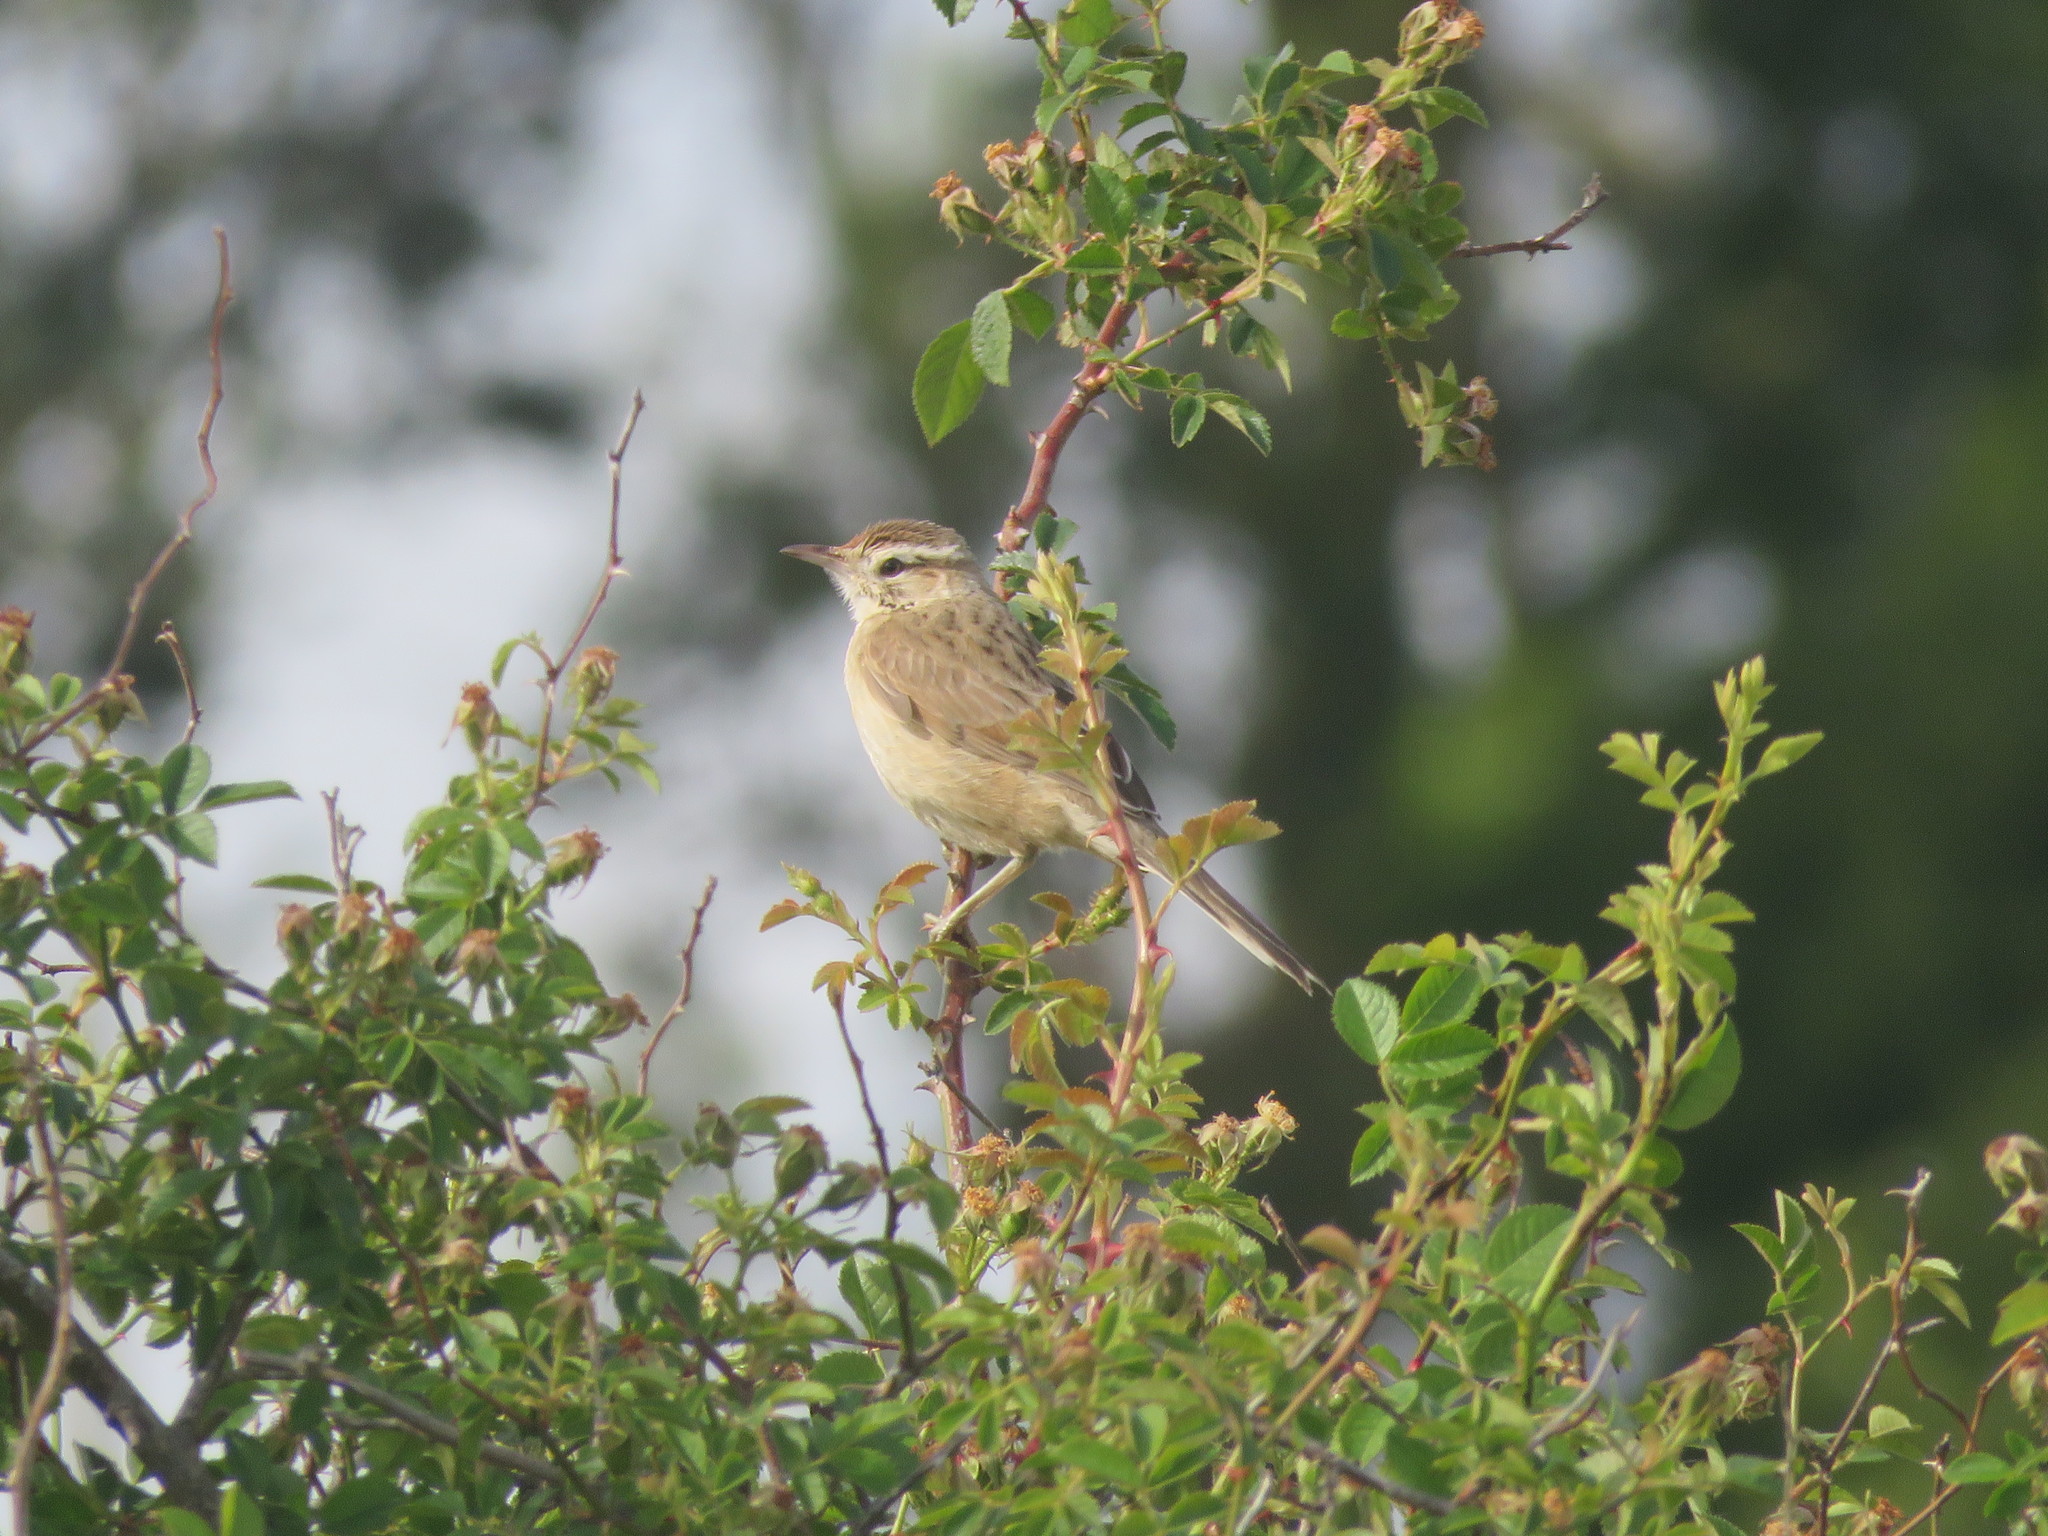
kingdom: Animalia
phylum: Chordata
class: Aves
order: Passeriformes
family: Furnariidae
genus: Anumbius
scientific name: Anumbius annumbi
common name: Firewood-gatherer
